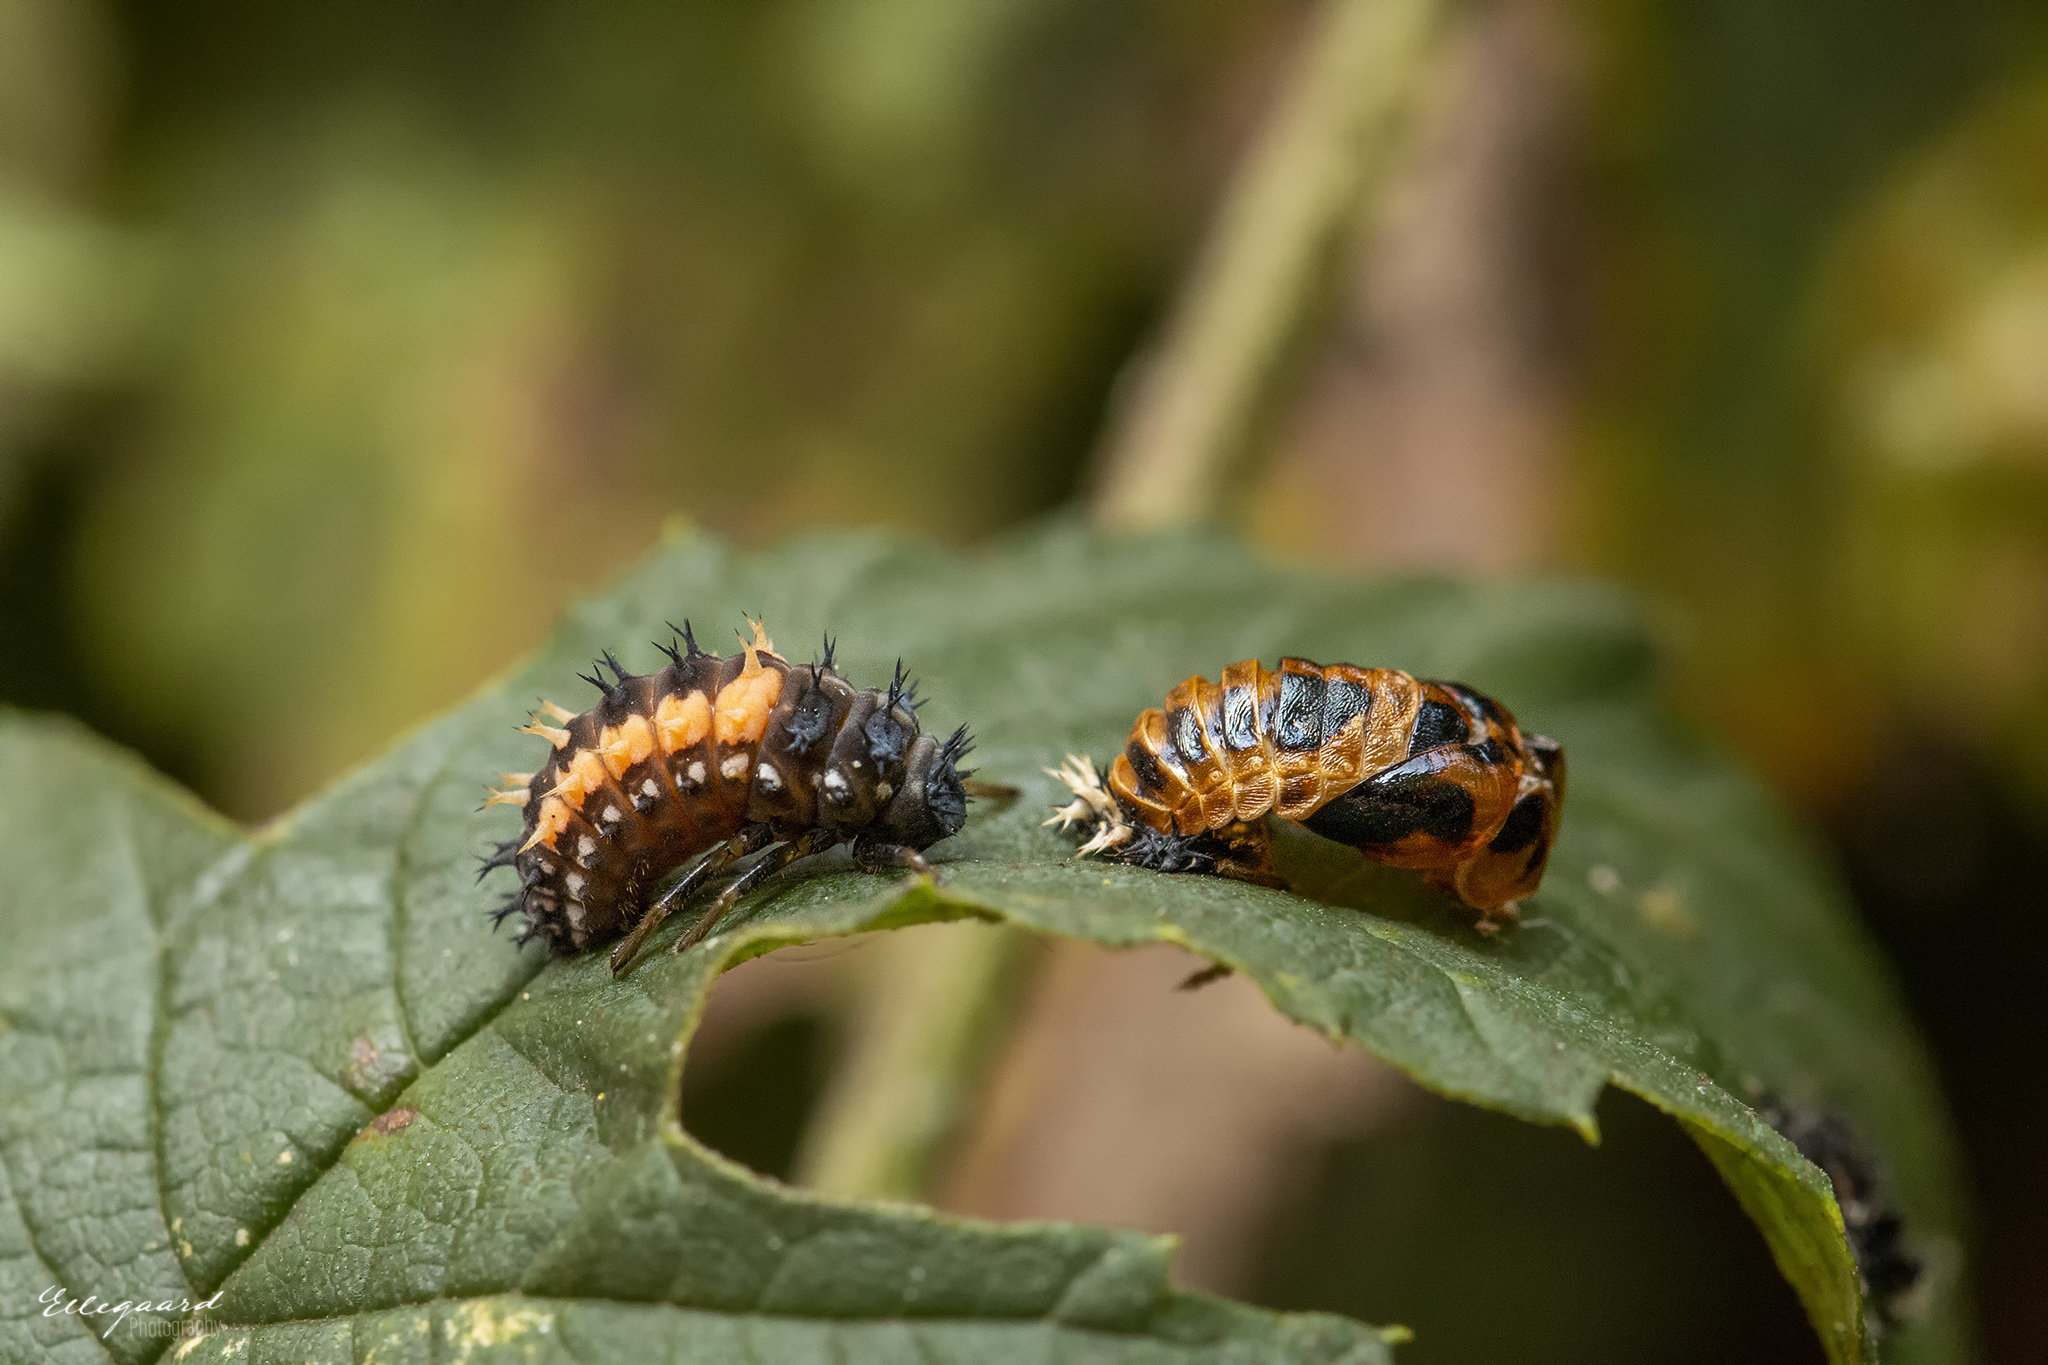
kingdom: Animalia
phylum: Arthropoda
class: Insecta
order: Coleoptera
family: Coccinellidae
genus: Harmonia
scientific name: Harmonia axyridis
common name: Harlequin ladybird
